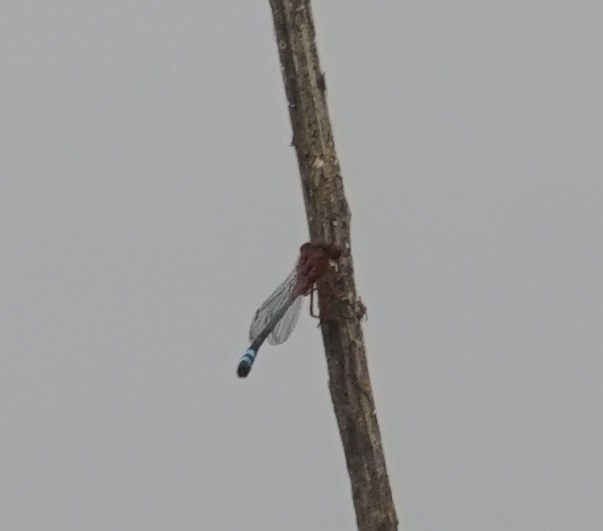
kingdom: Animalia
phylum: Arthropoda
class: Insecta
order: Odonata
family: Coenagrionidae
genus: Xanthagrion
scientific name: Xanthagrion erythroneurum
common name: Red and blue damsel
